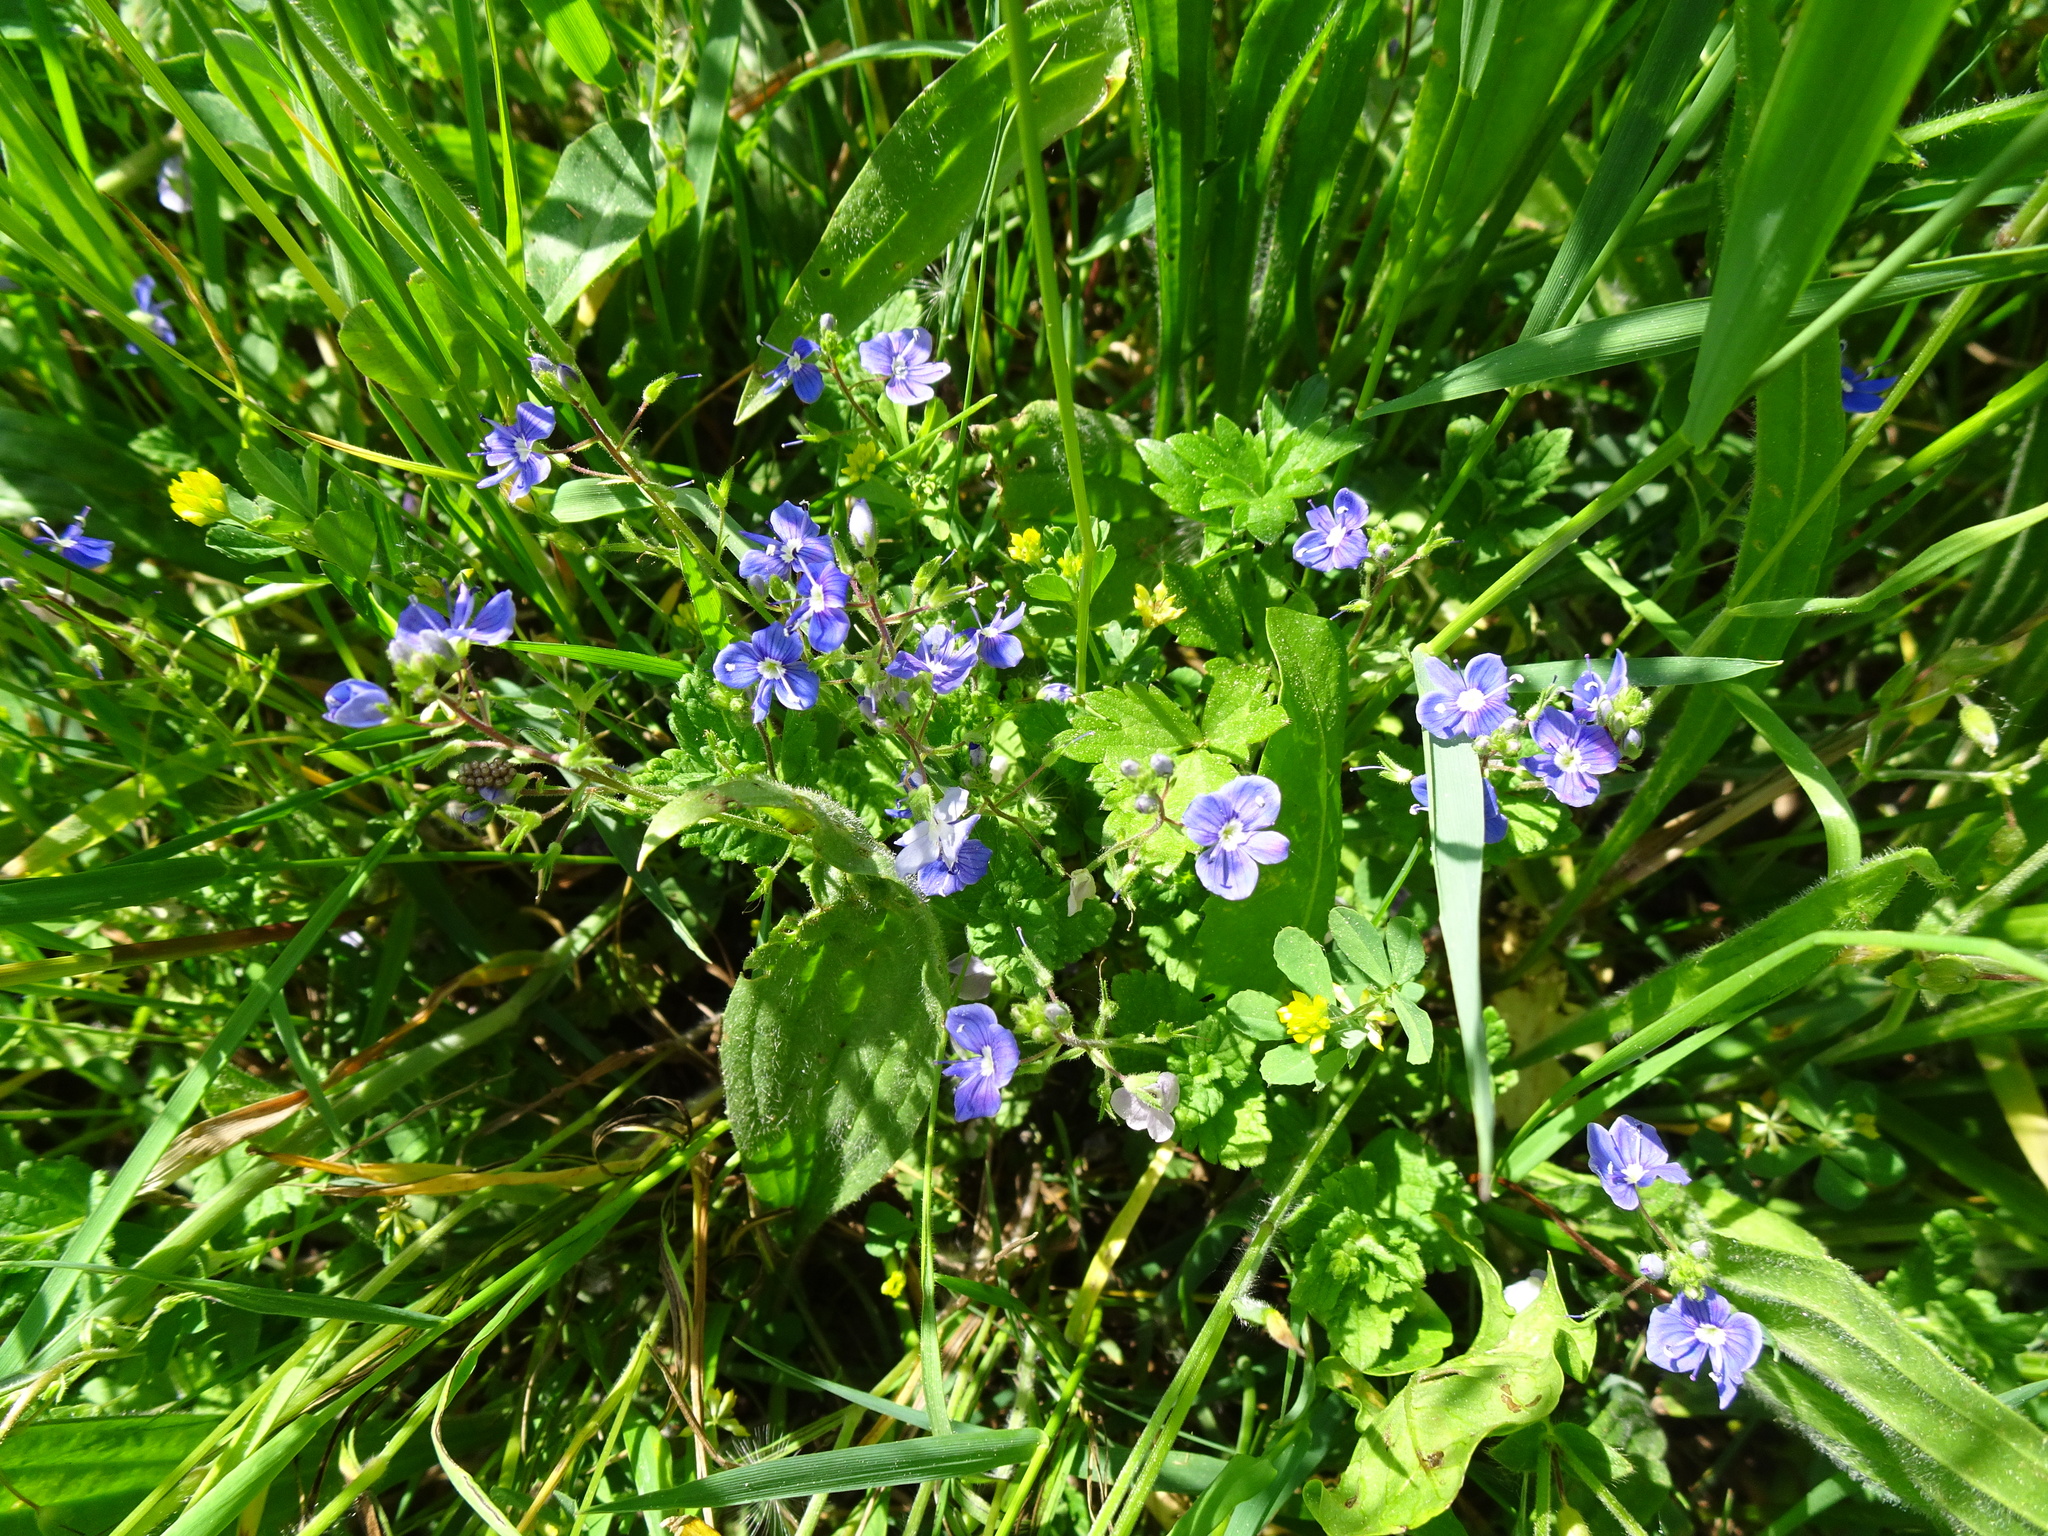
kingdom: Plantae
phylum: Tracheophyta
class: Magnoliopsida
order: Lamiales
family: Plantaginaceae
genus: Veronica
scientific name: Veronica chamaedrys
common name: Germander speedwell
